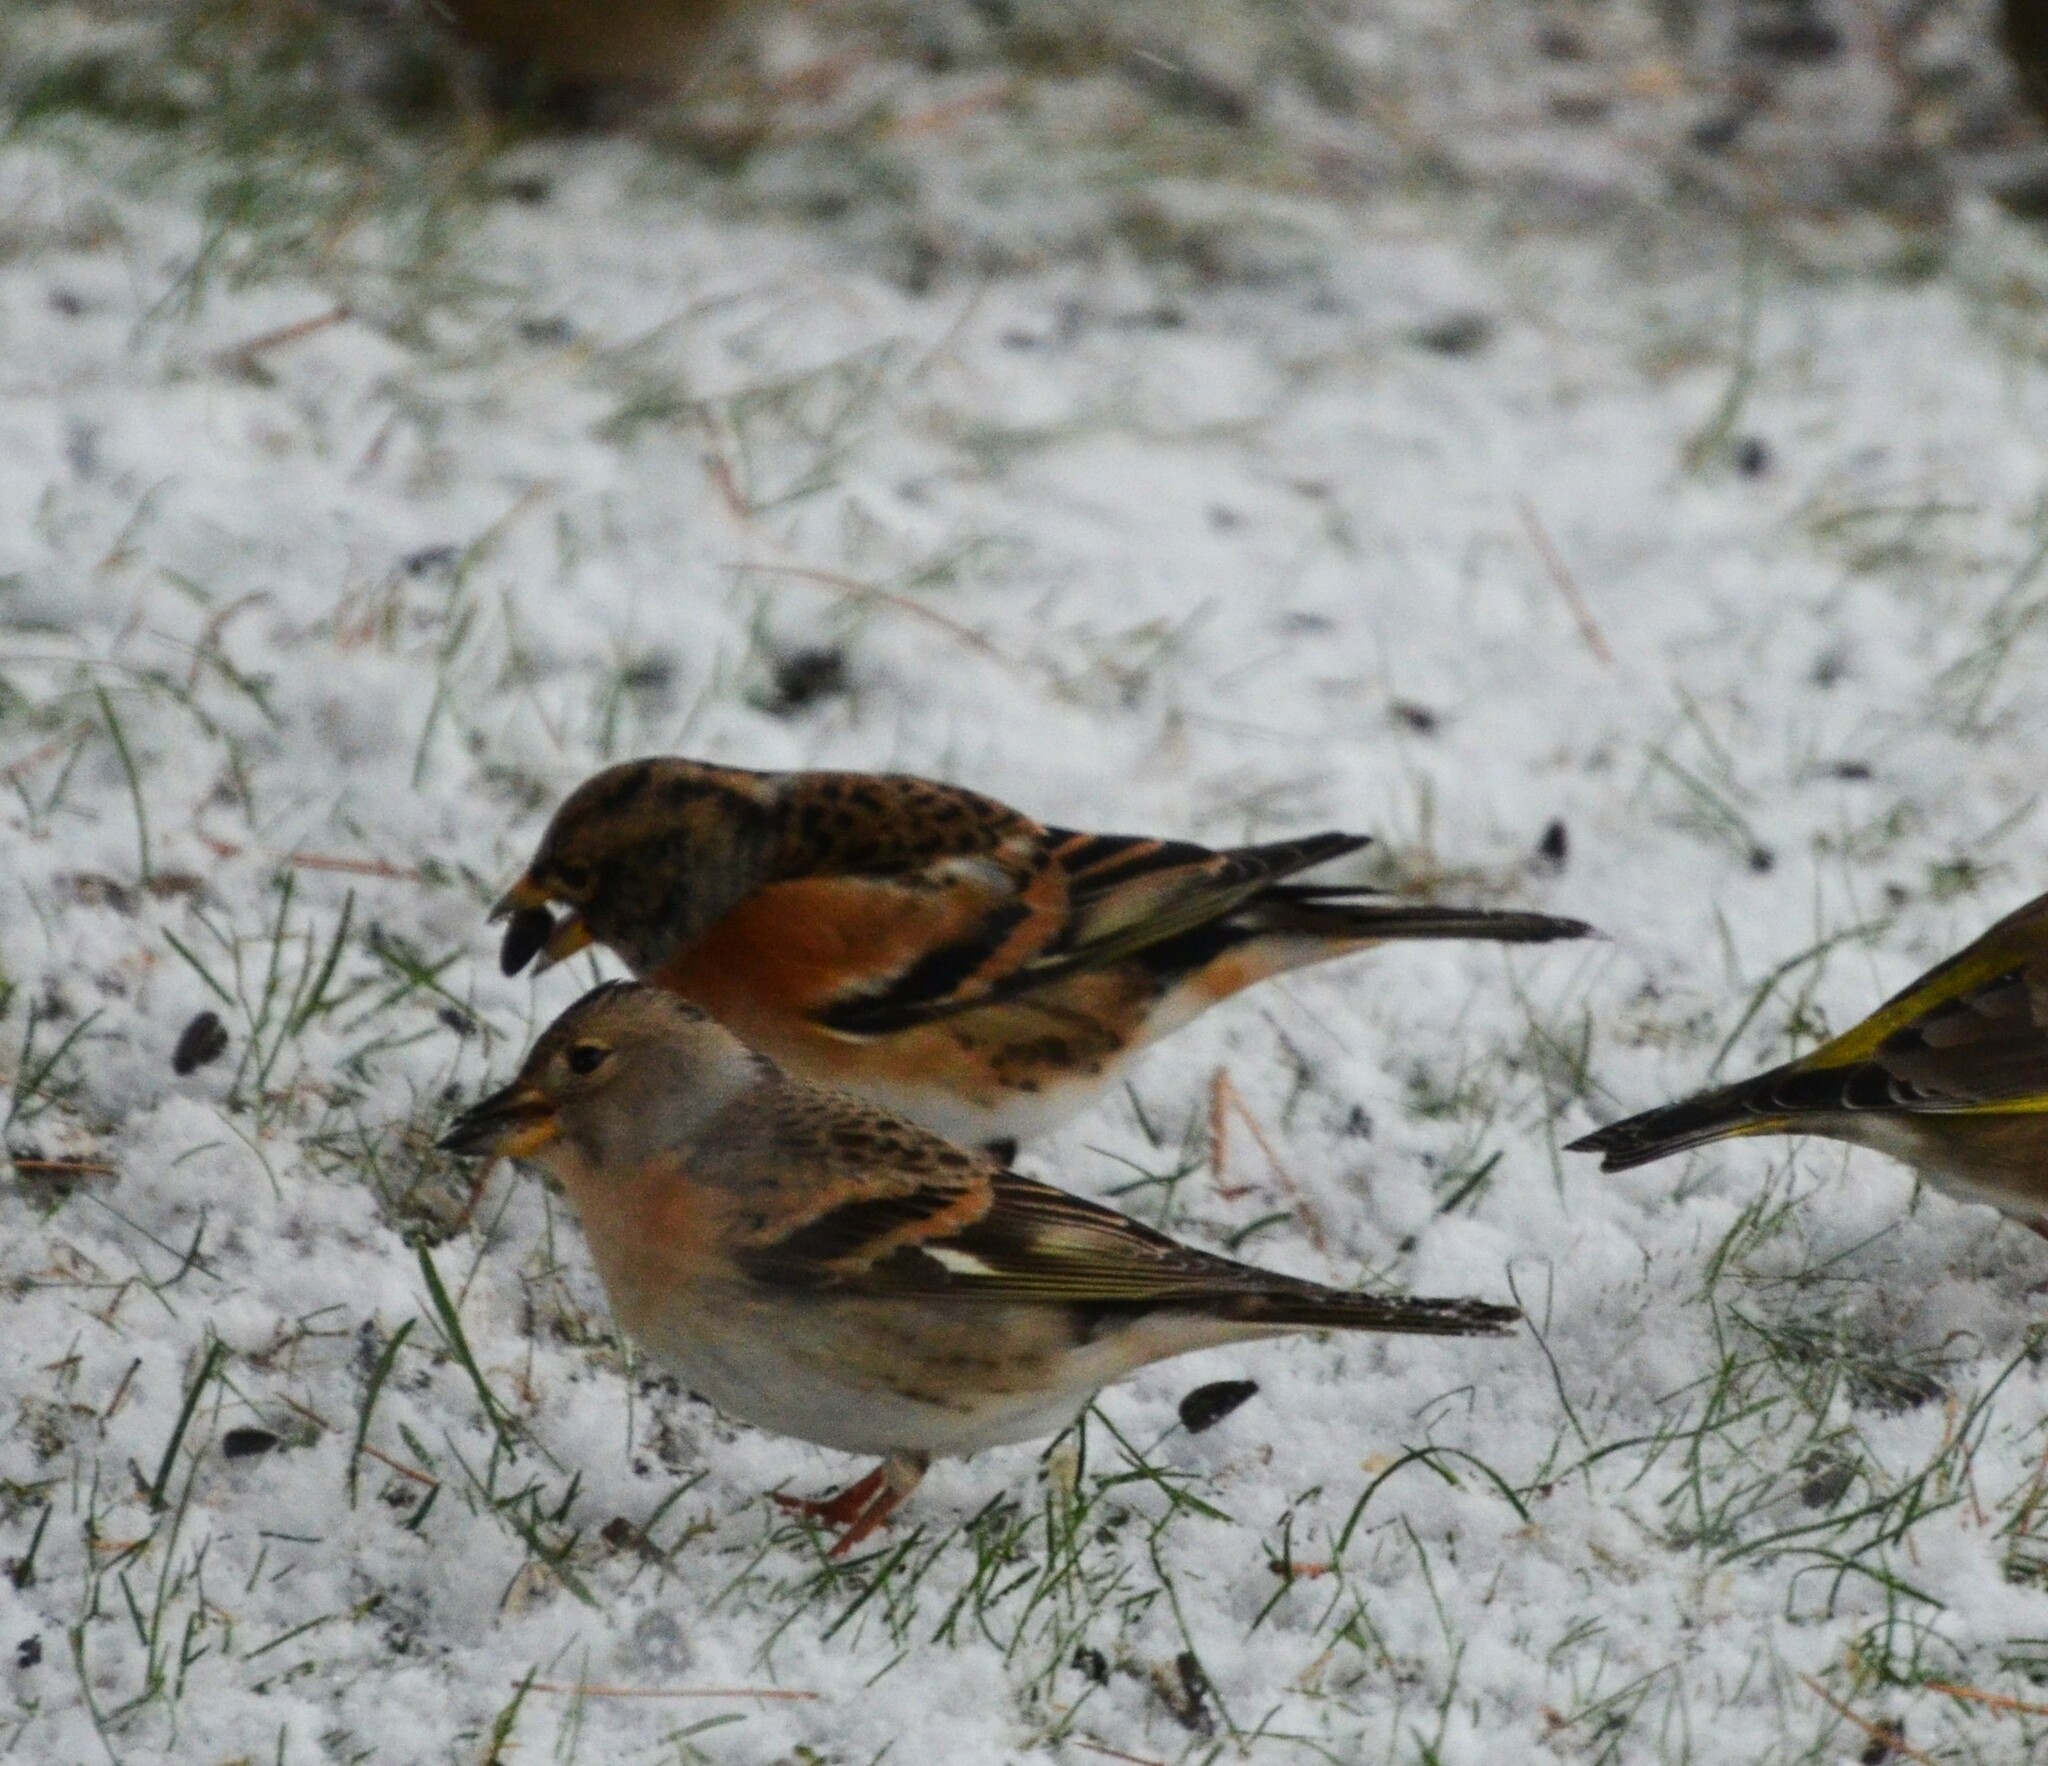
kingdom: Animalia
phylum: Chordata
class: Aves
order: Passeriformes
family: Fringillidae
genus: Fringilla
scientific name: Fringilla montifringilla
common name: Brambling
